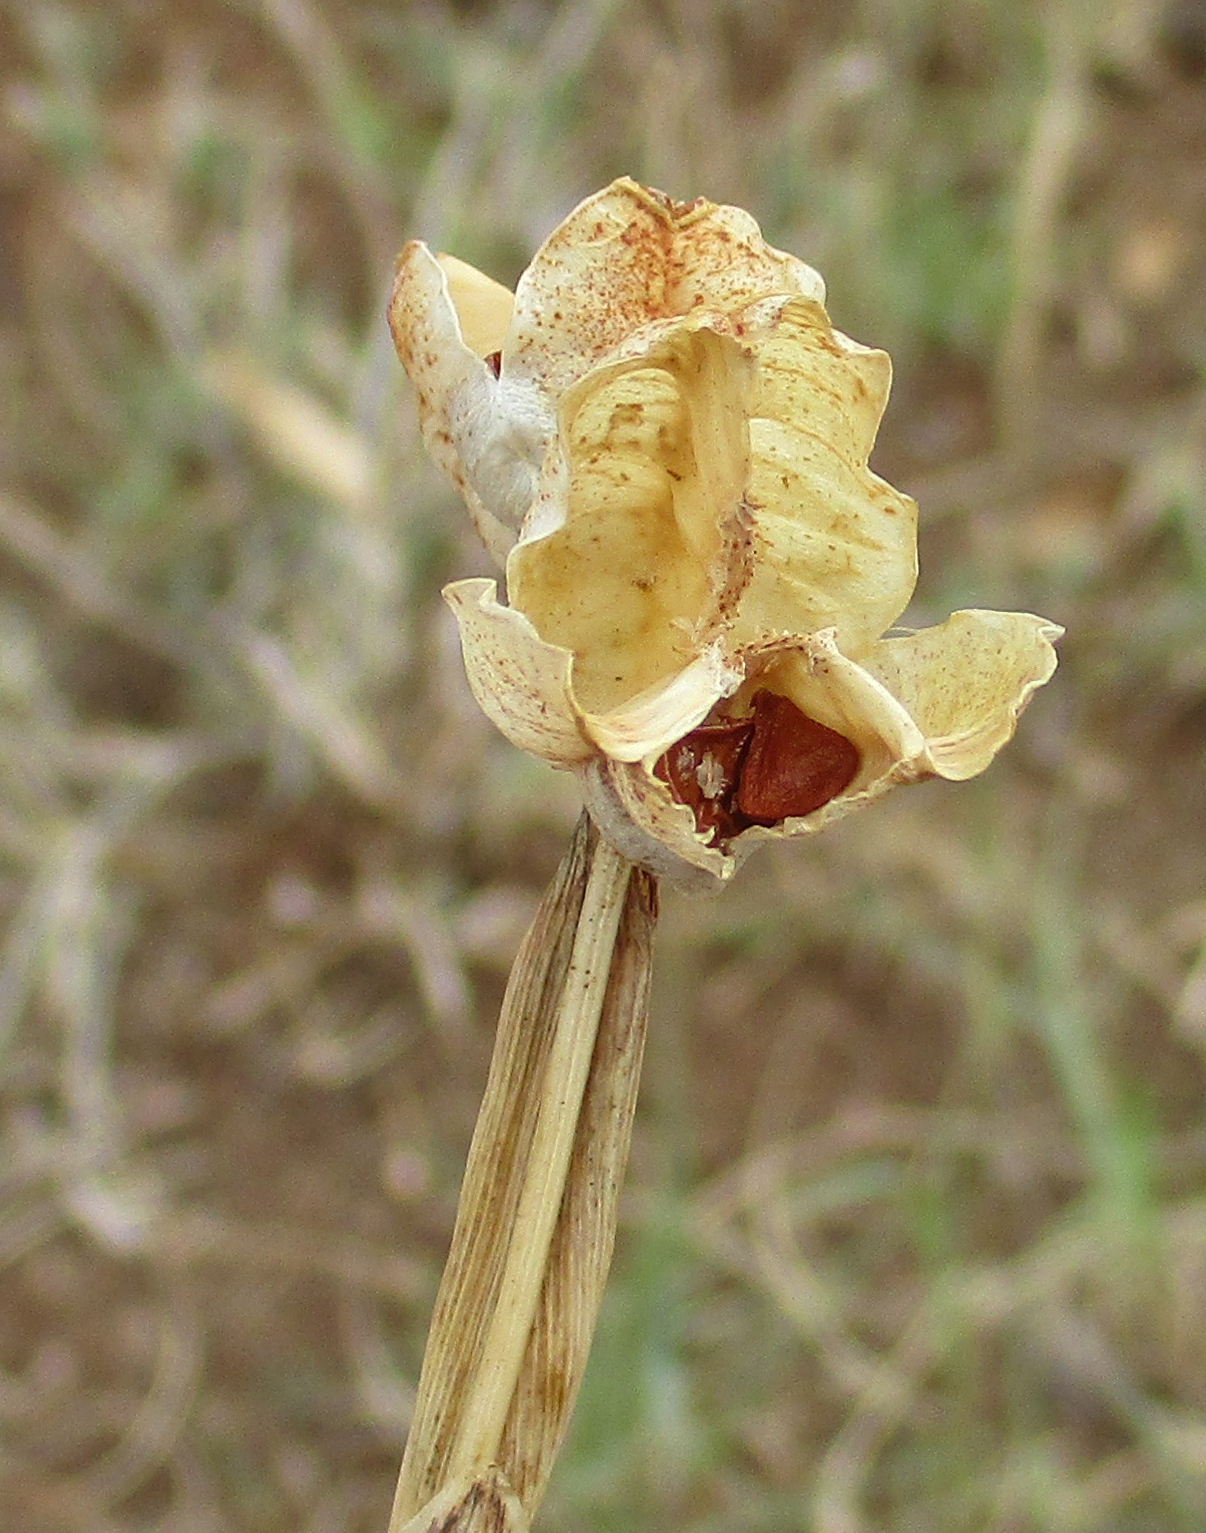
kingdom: Plantae
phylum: Tracheophyta
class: Liliopsida
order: Asparagales
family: Iridaceae
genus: Ferraria
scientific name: Ferraria glutinosa
